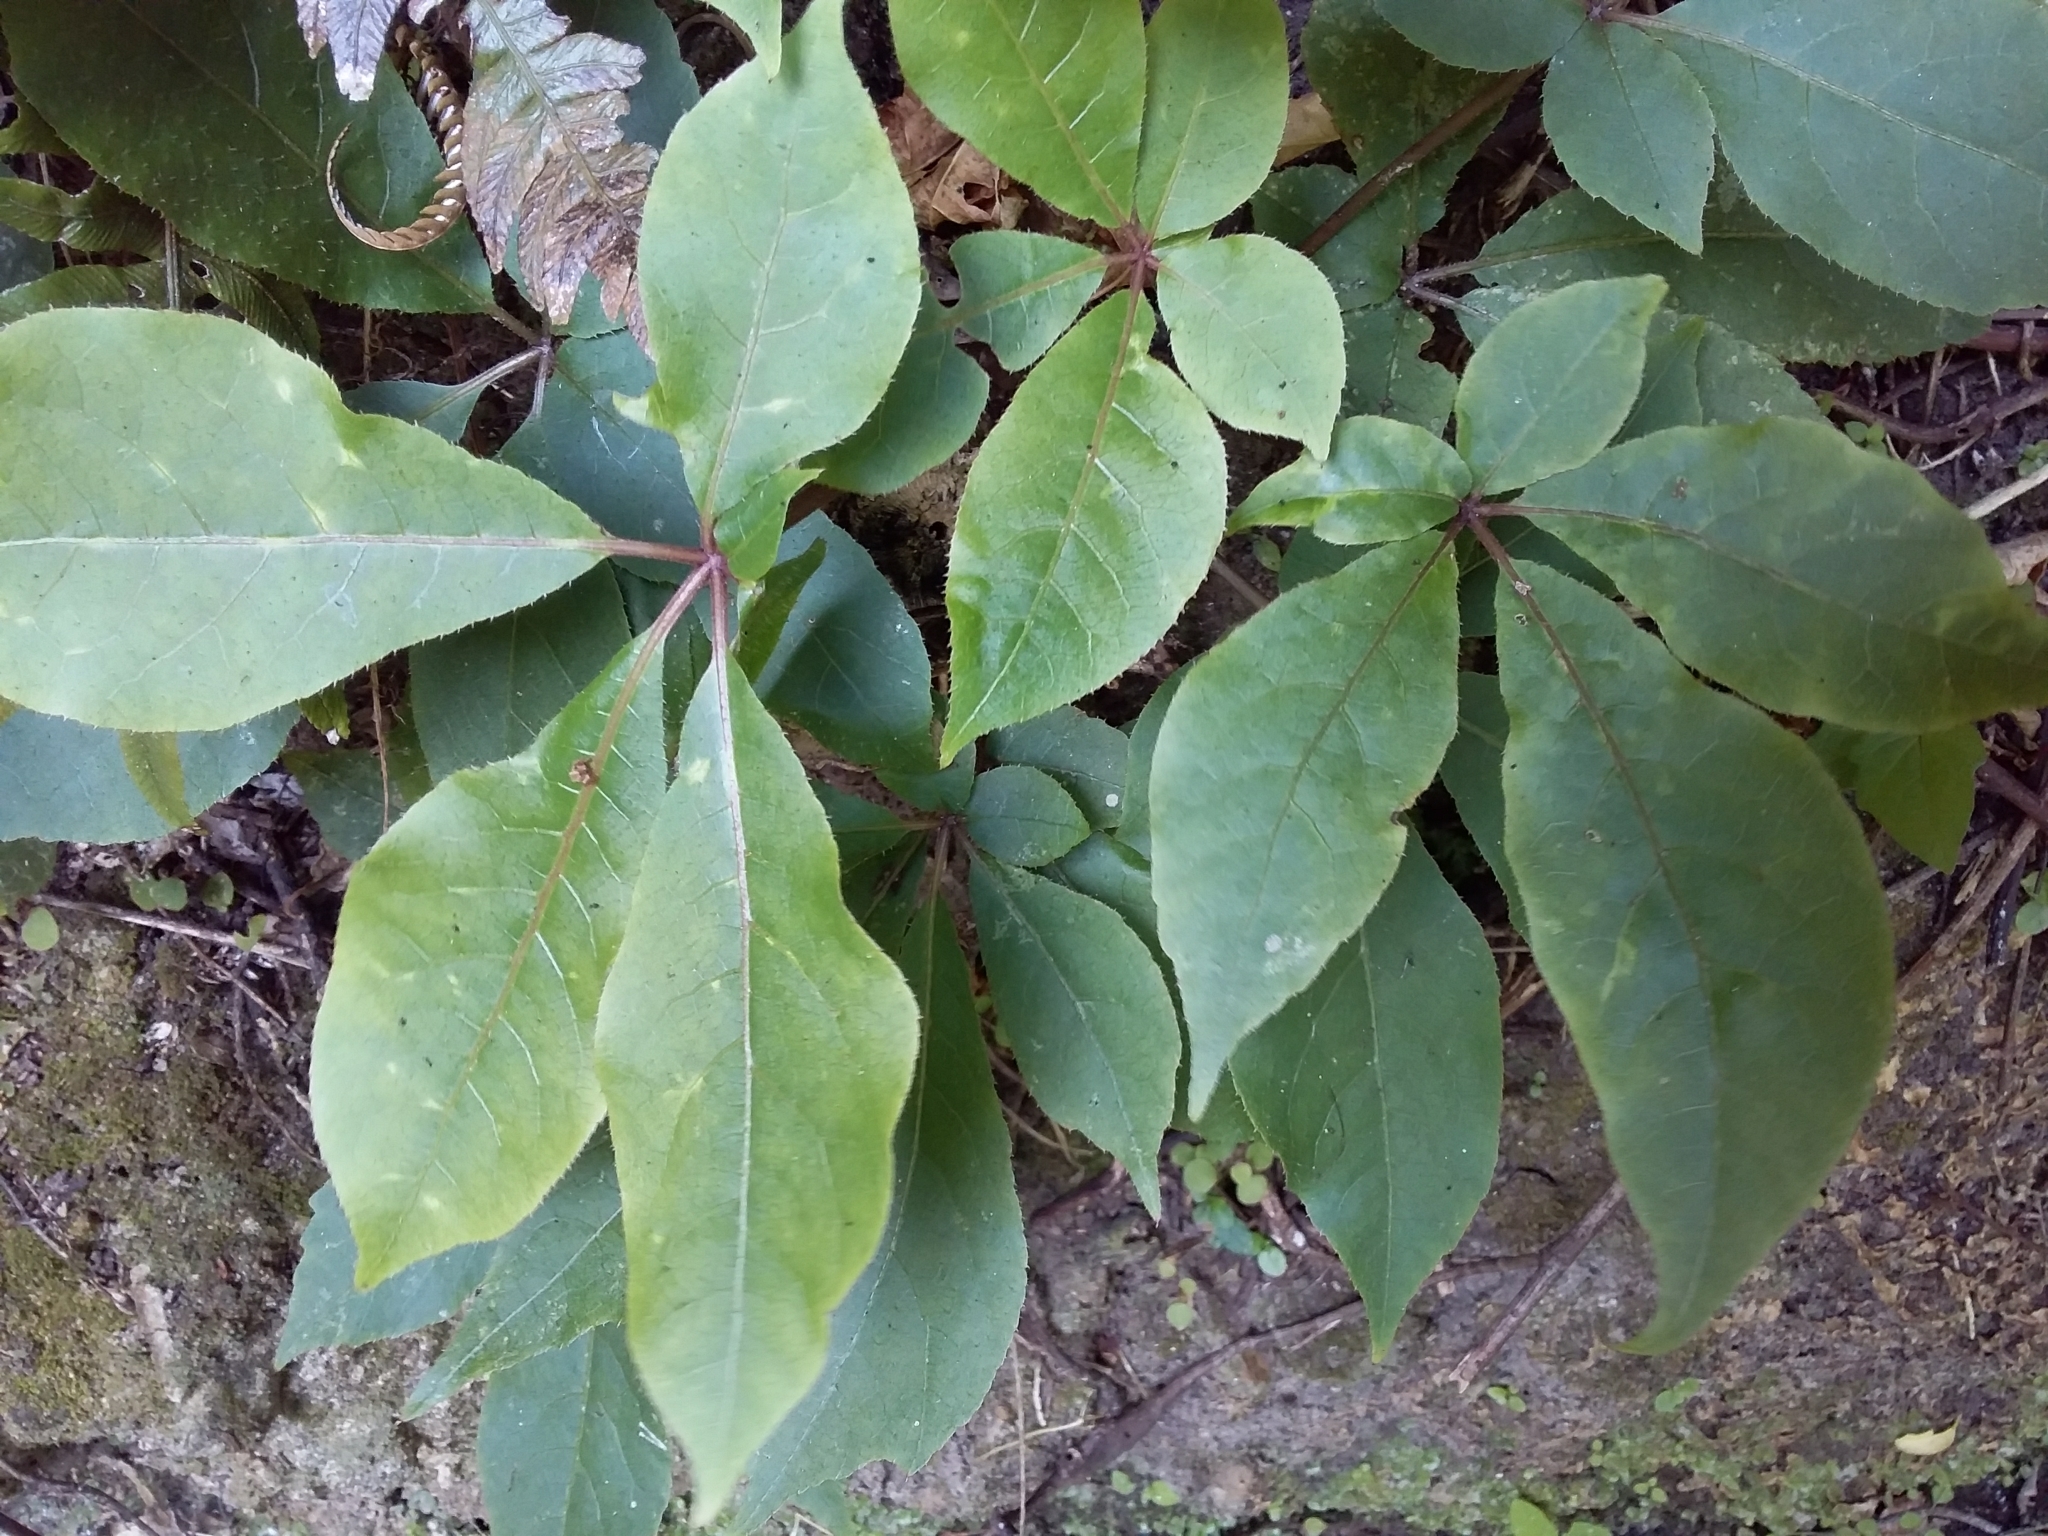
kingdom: Plantae
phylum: Tracheophyta
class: Magnoliopsida
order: Apiales
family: Araliaceae
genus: Schefflera
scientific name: Schefflera digitata
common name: Pate
